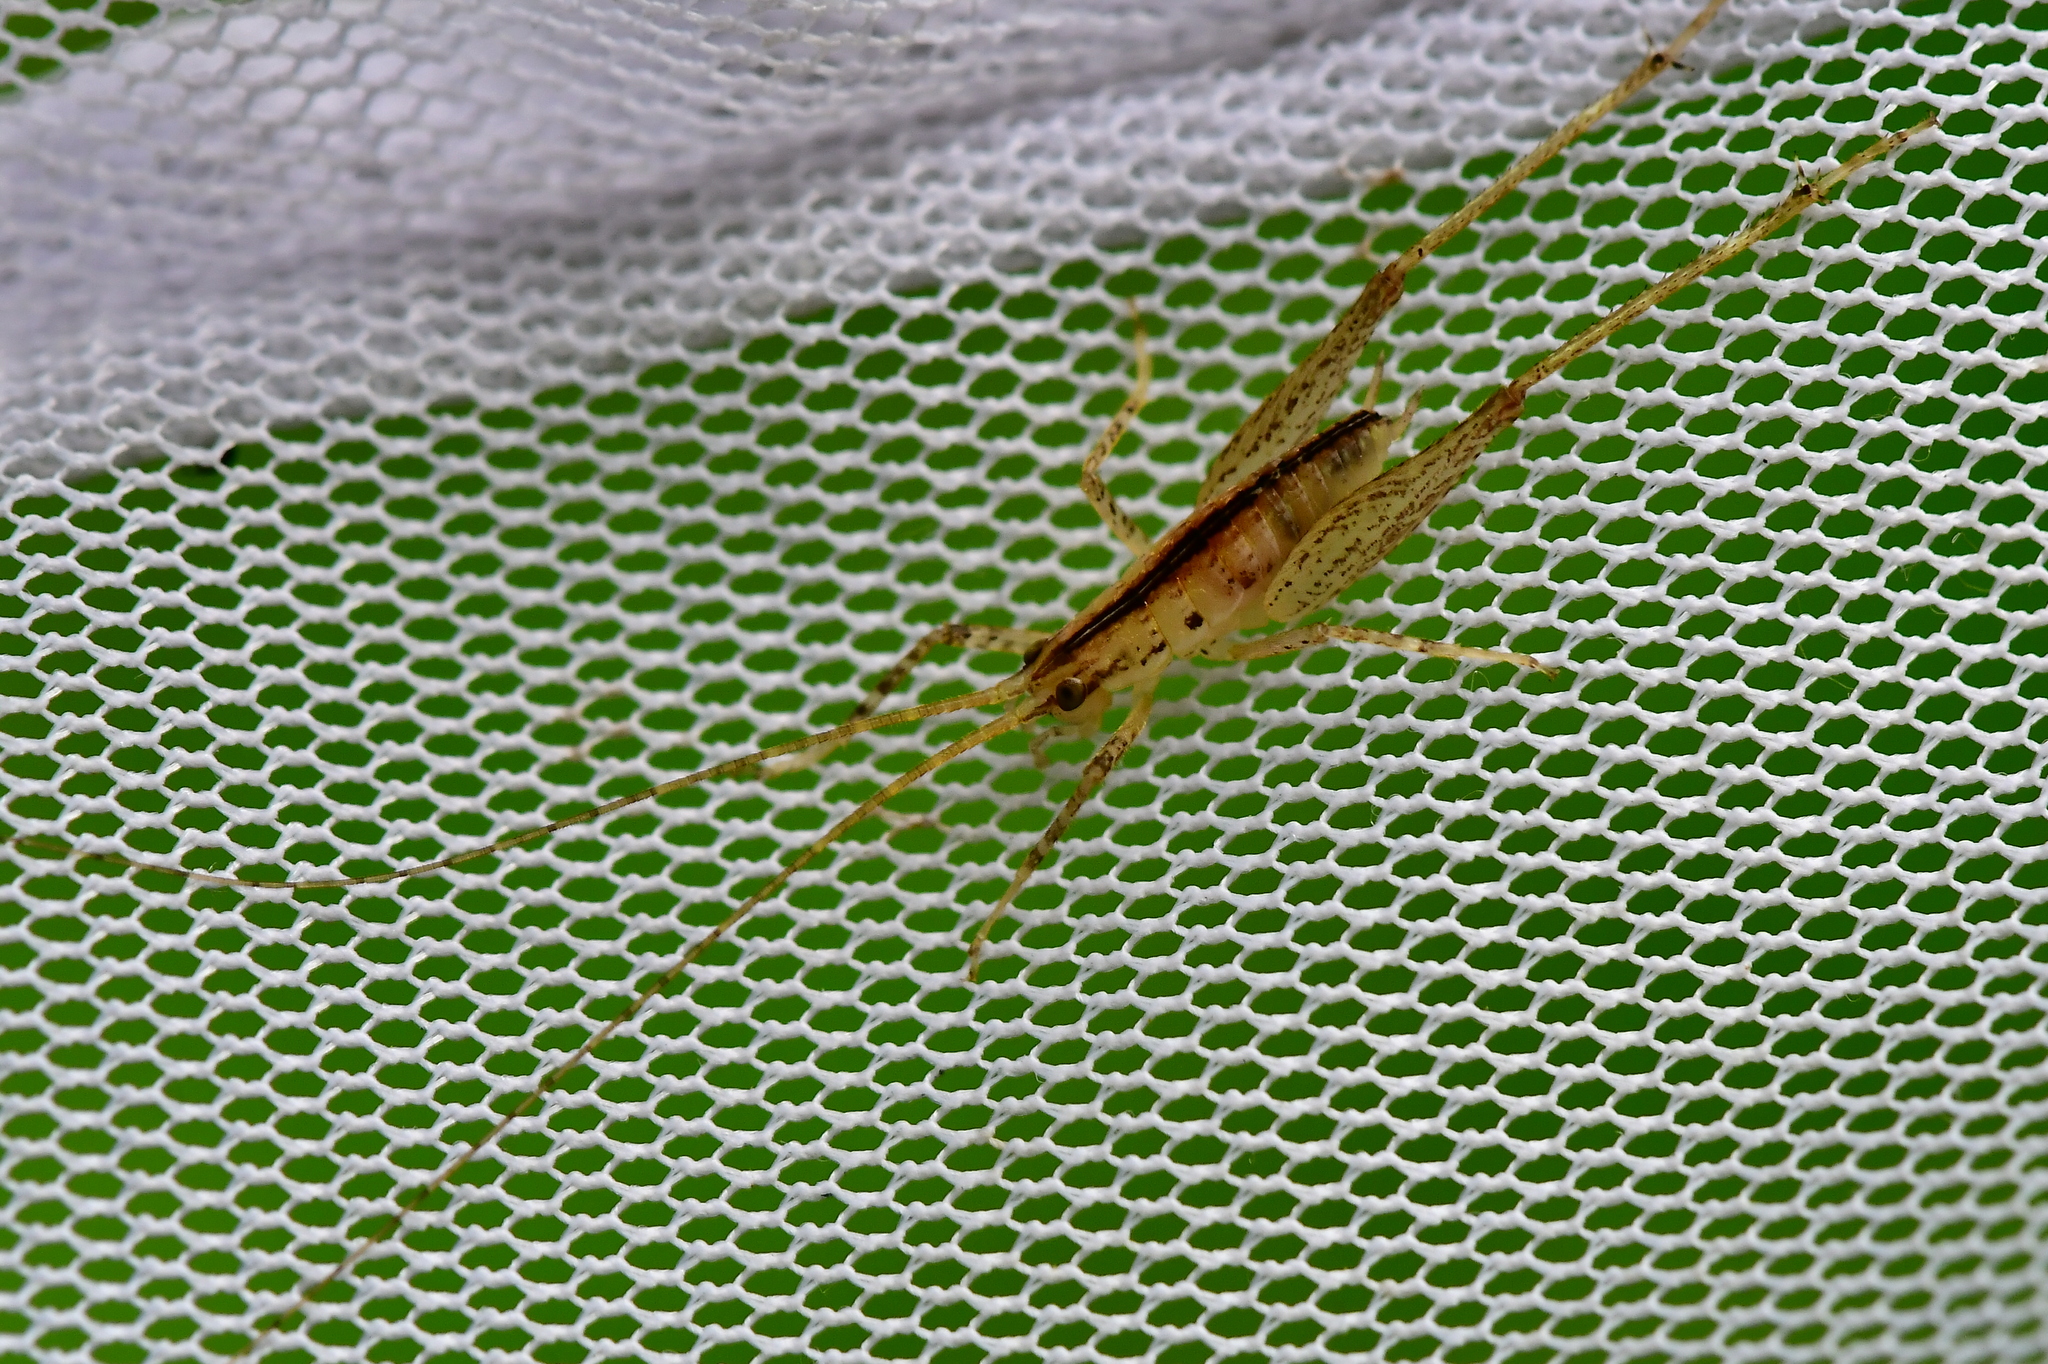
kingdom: Animalia
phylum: Arthropoda
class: Insecta
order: Orthoptera
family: Rhaphidophoridae
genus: Talitropsis
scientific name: Talitropsis poduroides
